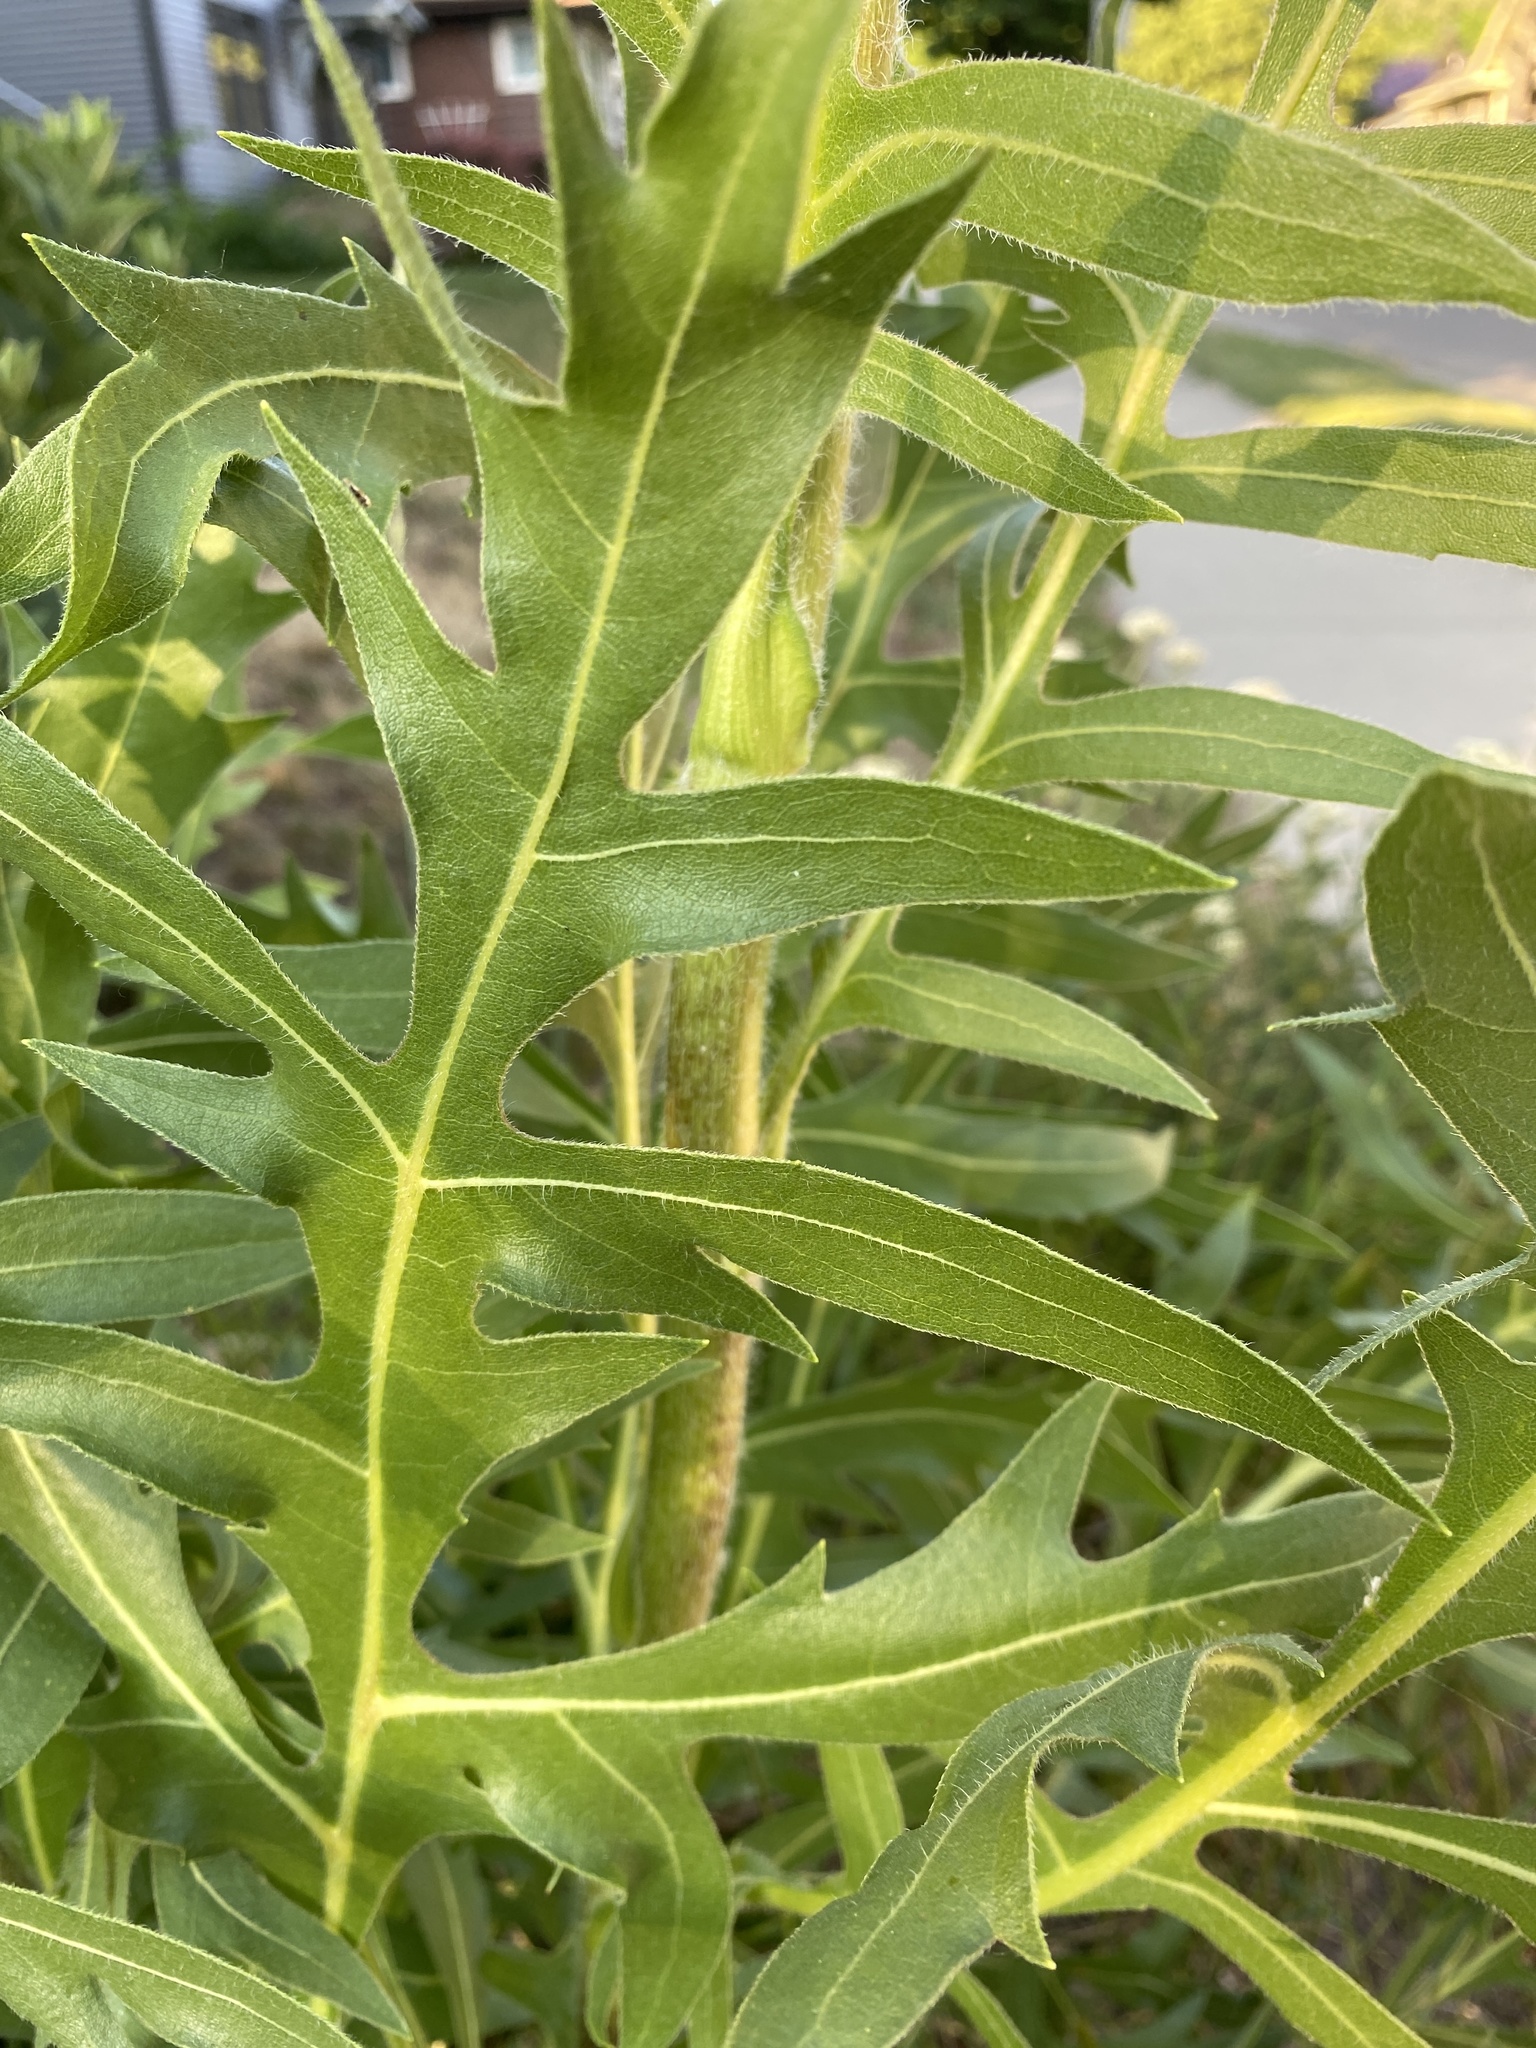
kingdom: Plantae
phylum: Tracheophyta
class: Magnoliopsida
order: Asterales
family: Asteraceae
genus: Silphium
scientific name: Silphium laciniatum
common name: Polarplant
